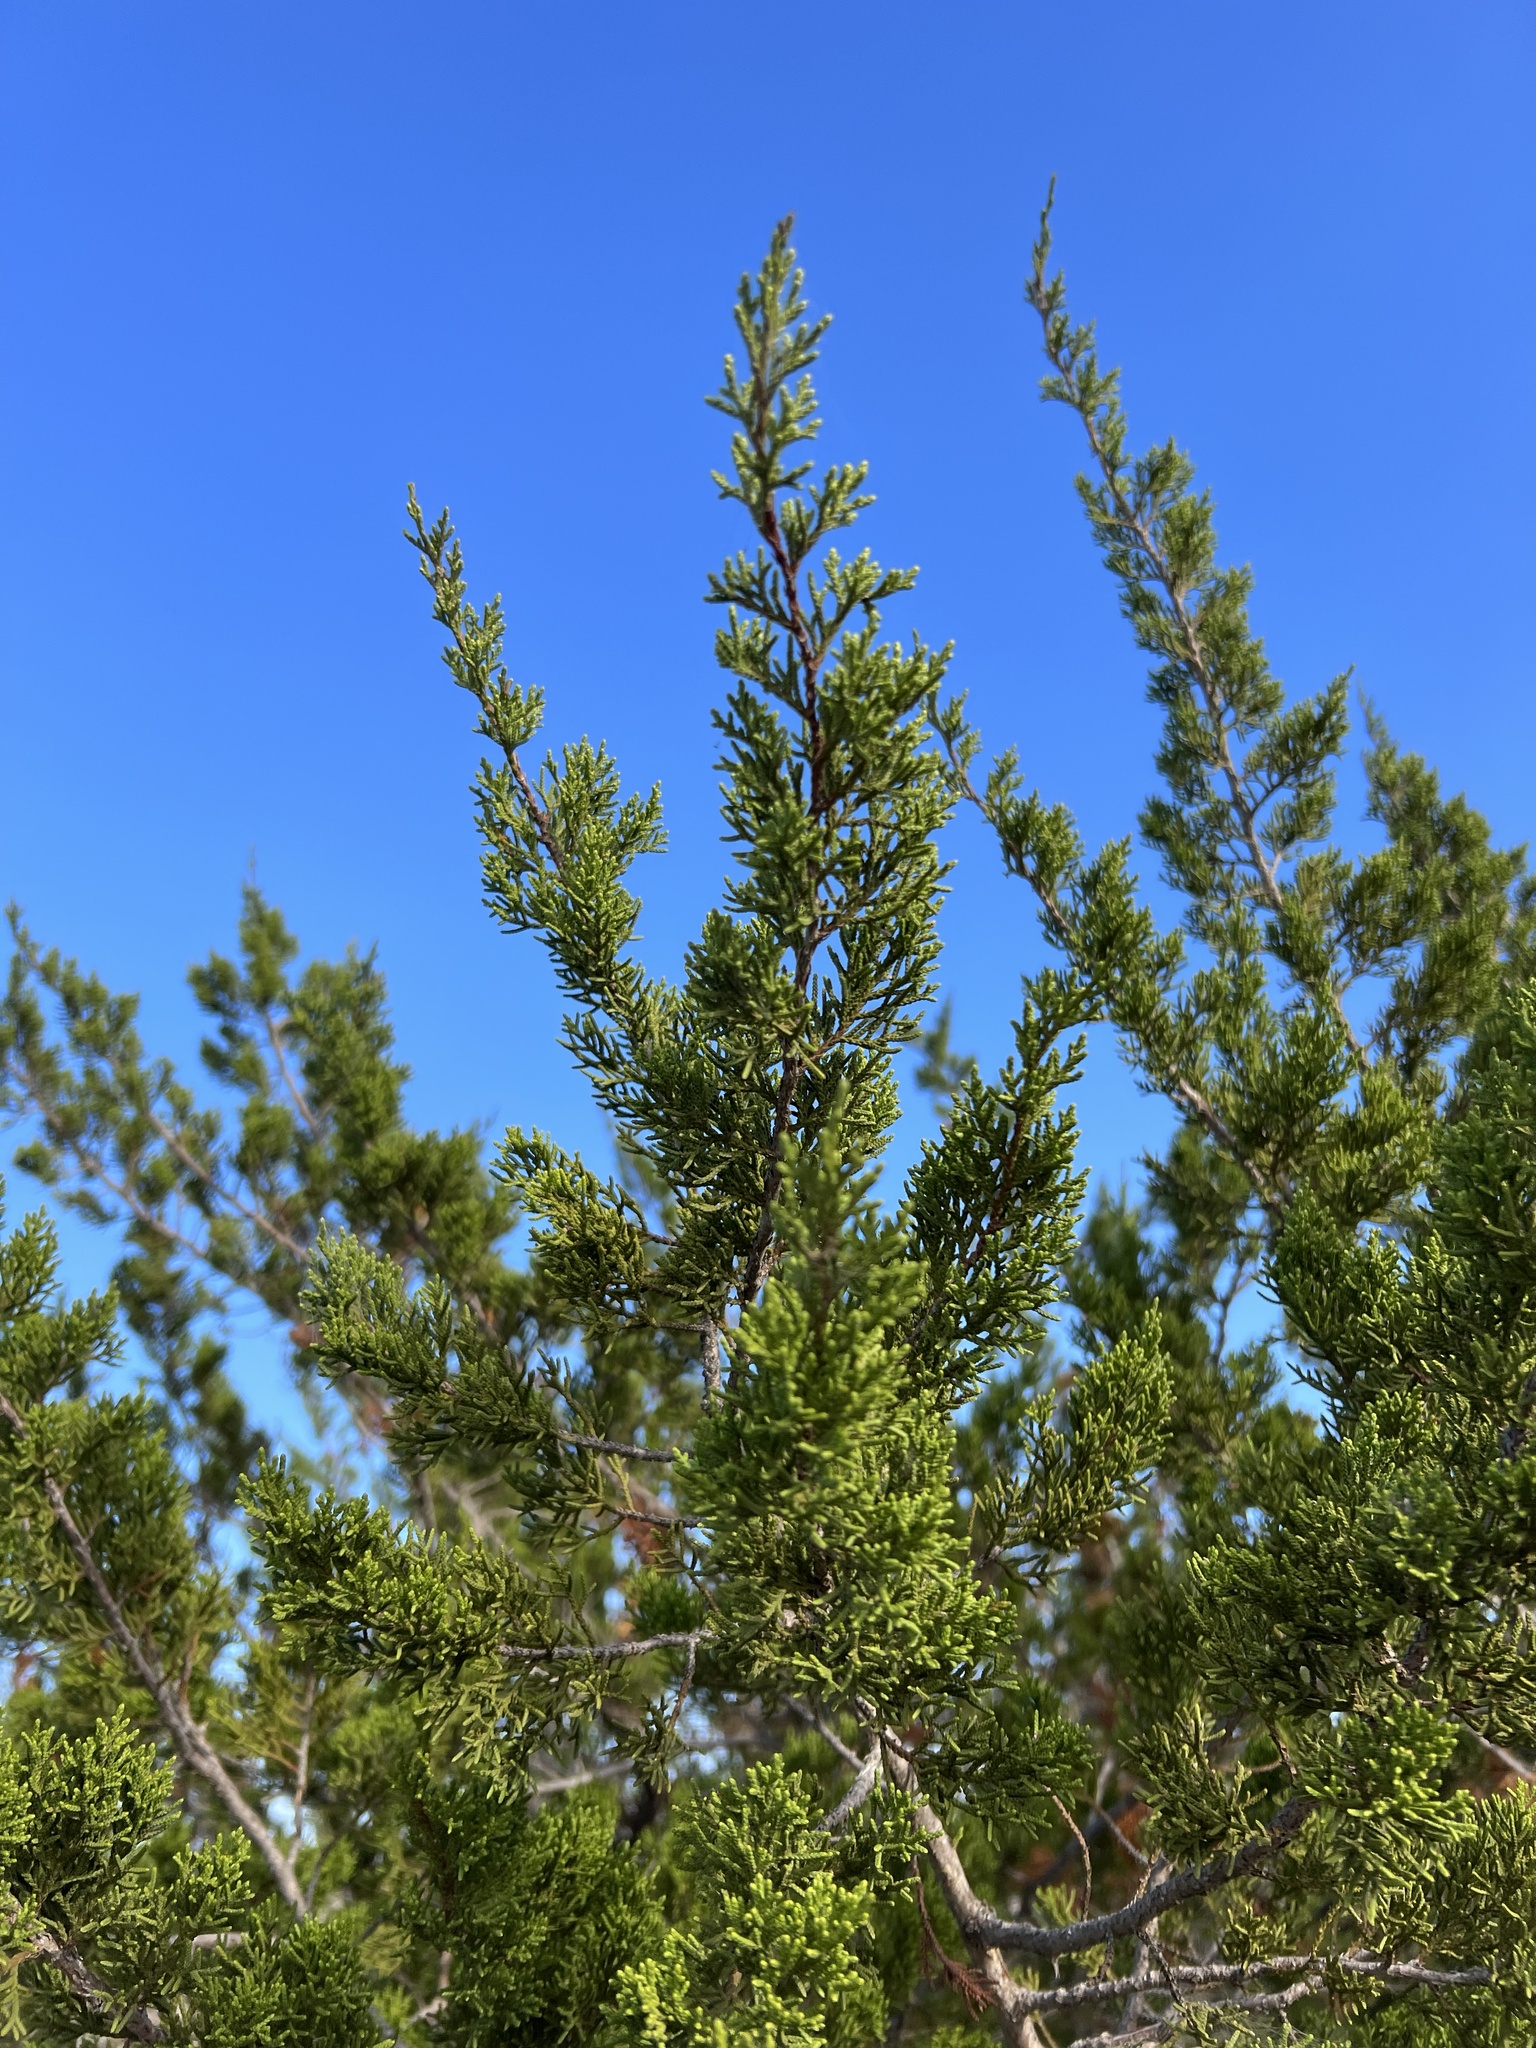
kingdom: Plantae
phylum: Tracheophyta
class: Pinopsida
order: Pinales
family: Cupressaceae
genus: Juniperus
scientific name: Juniperus ashei
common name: Mexican juniper
